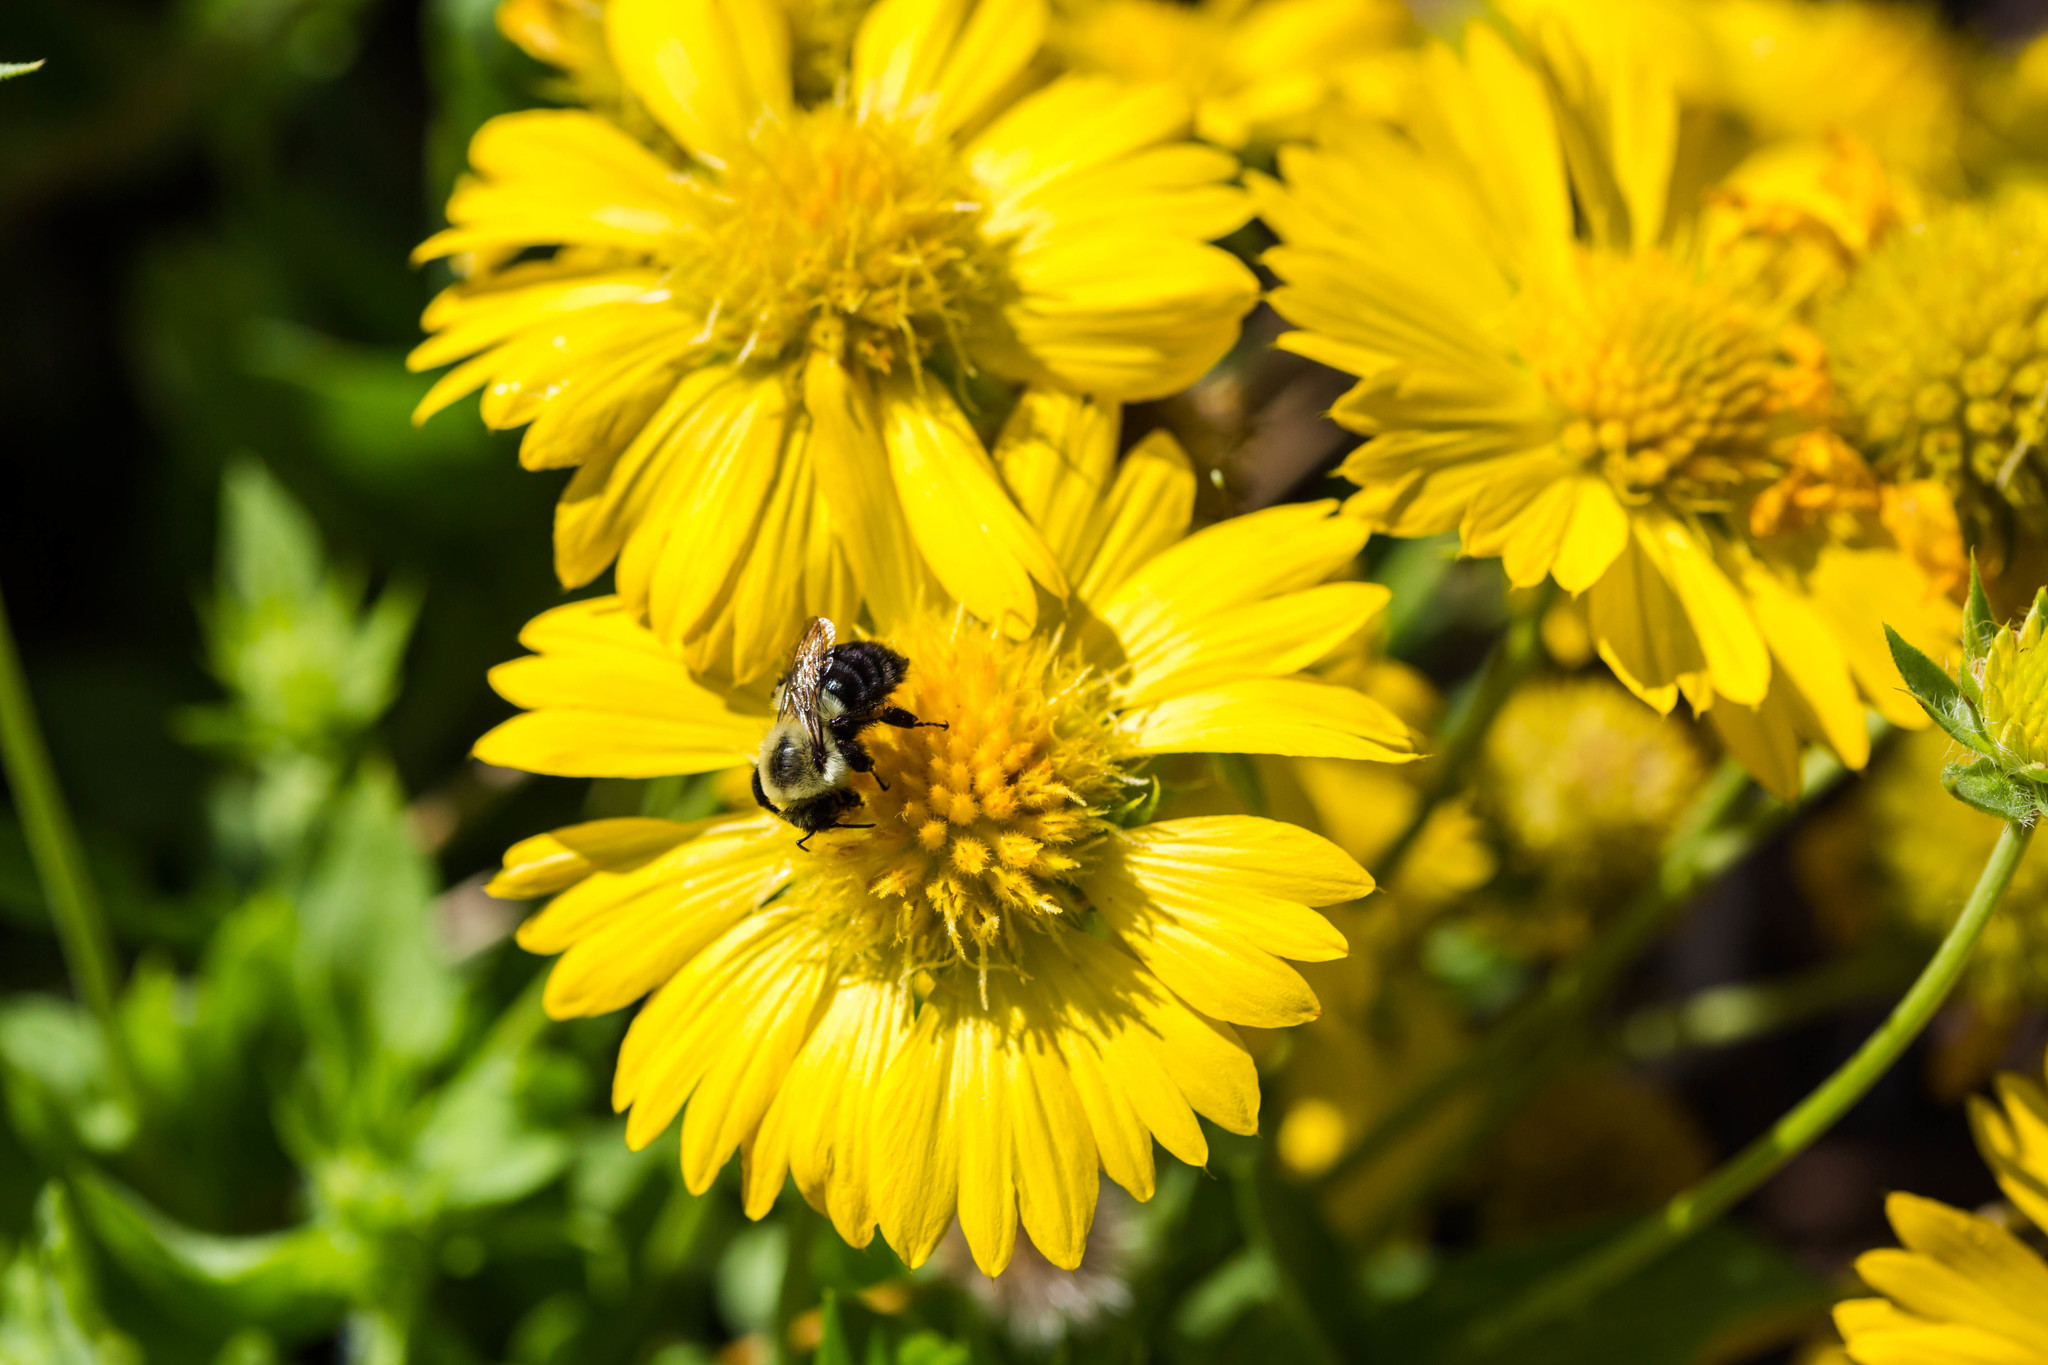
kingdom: Animalia
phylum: Arthropoda
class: Insecta
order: Hymenoptera
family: Apidae
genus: Bombus
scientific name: Bombus impatiens
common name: Common eastern bumble bee
